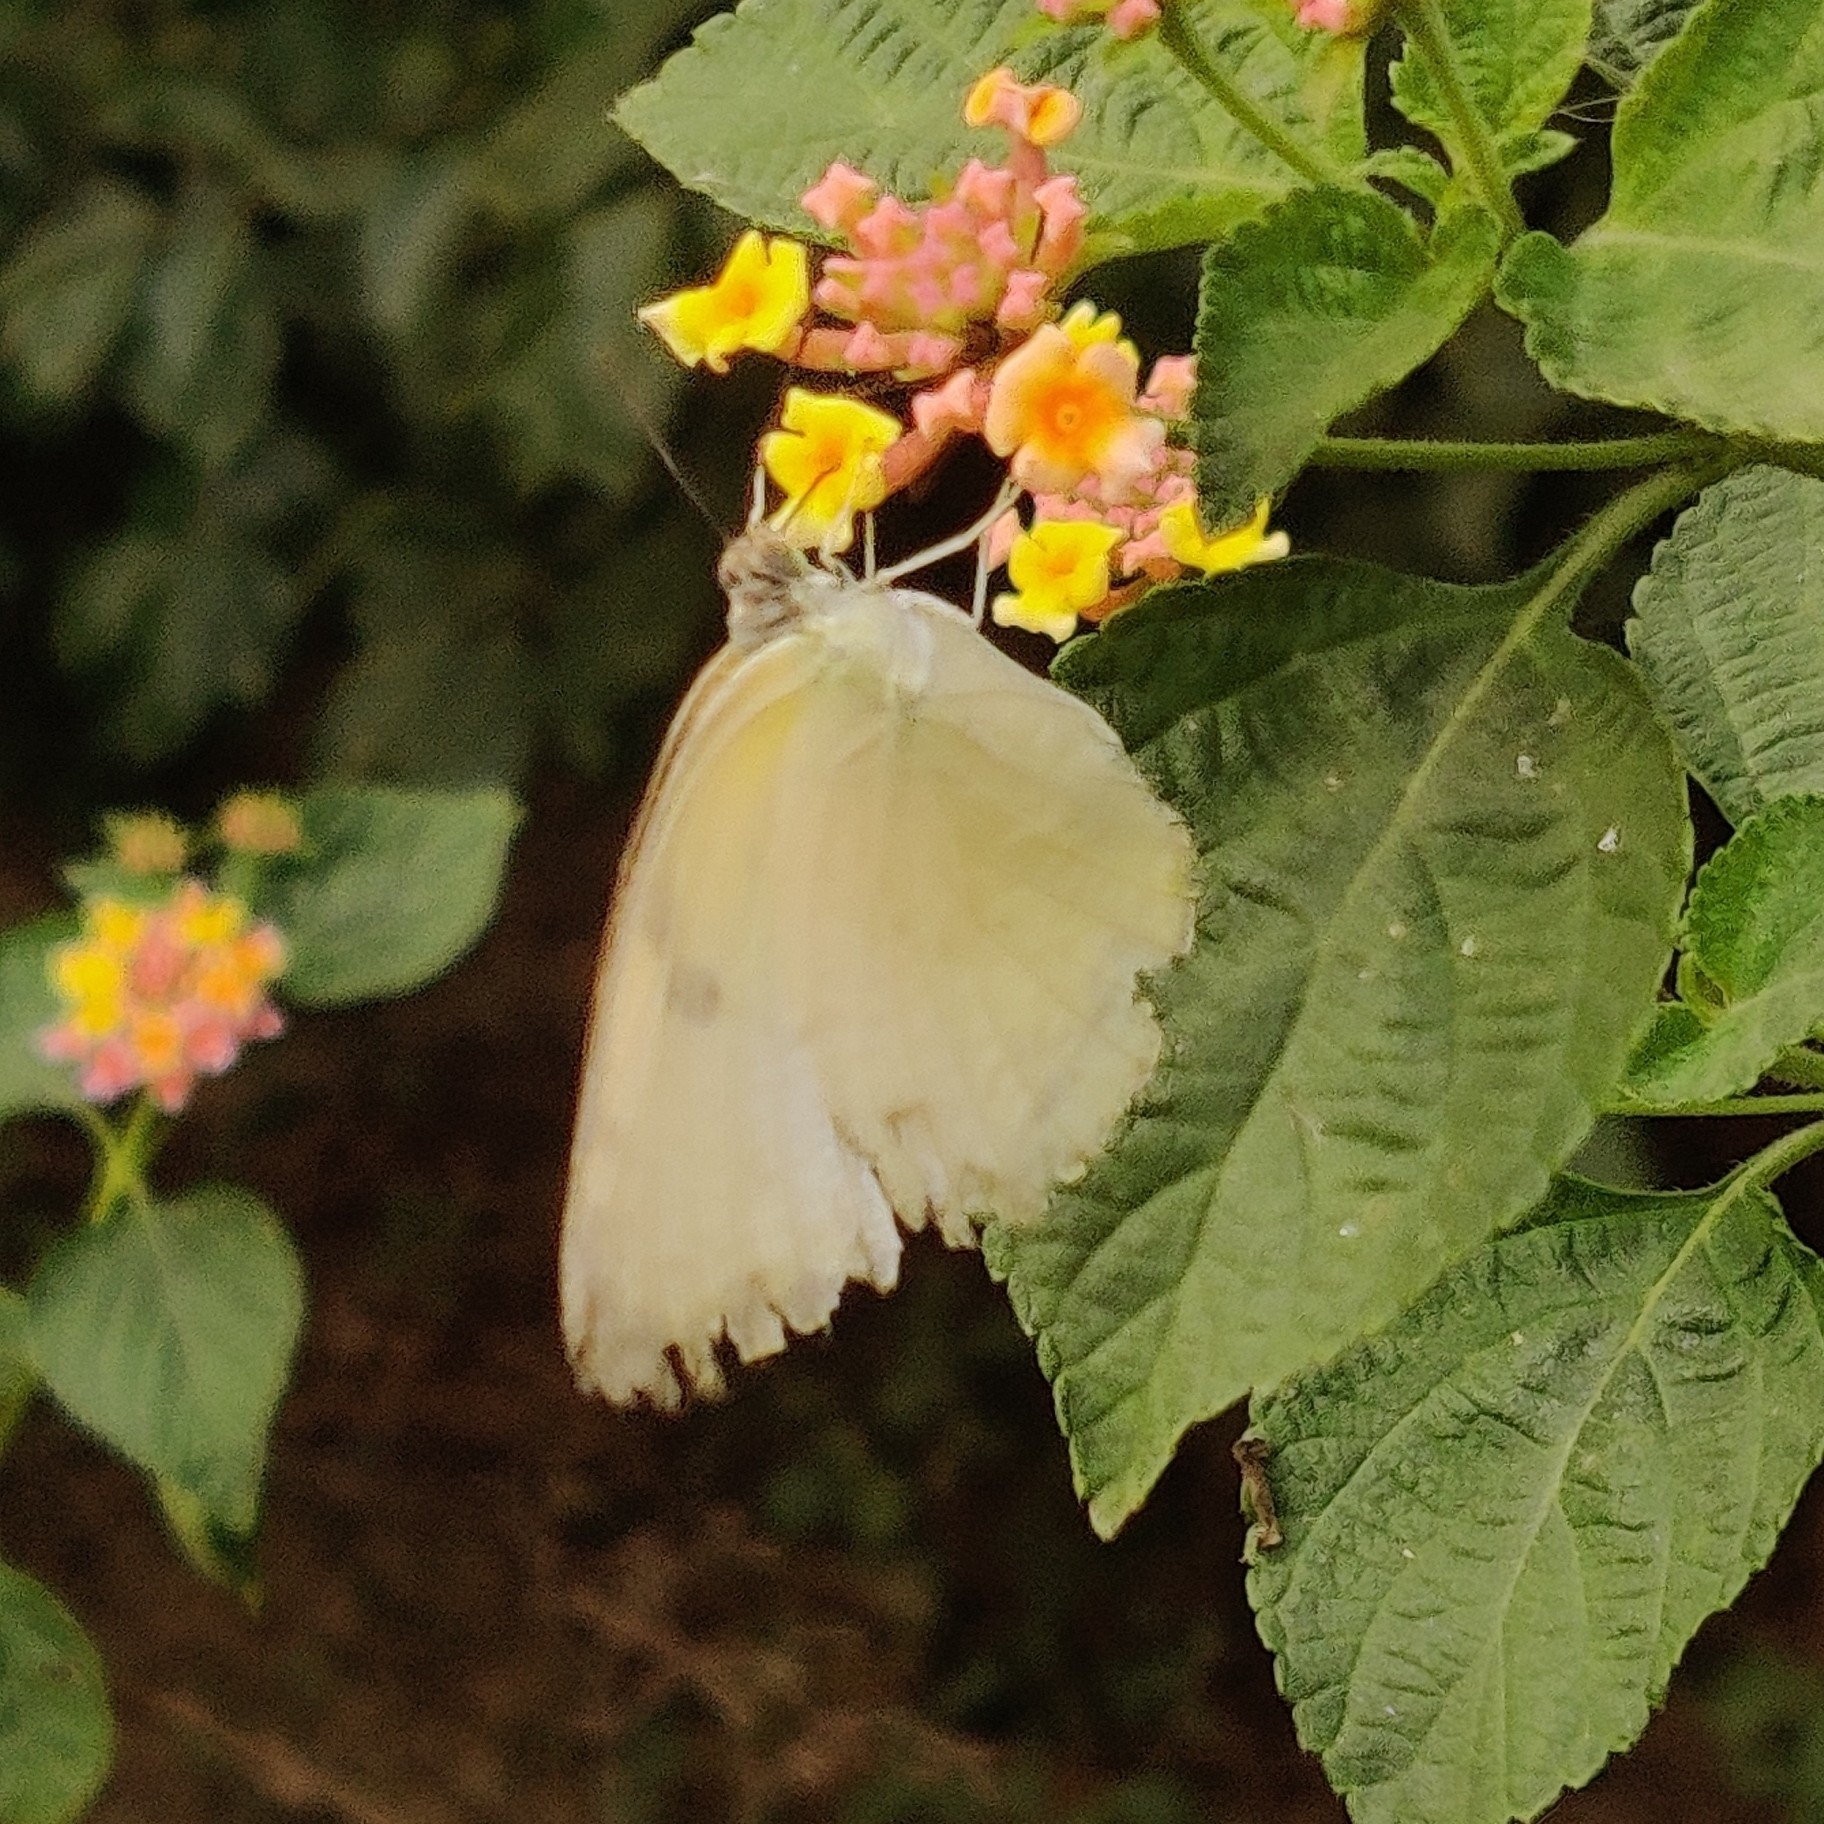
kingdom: Animalia
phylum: Arthropoda
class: Insecta
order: Lepidoptera
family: Pieridae
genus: Catopsilia
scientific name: Catopsilia pomona
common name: Common emigrant
